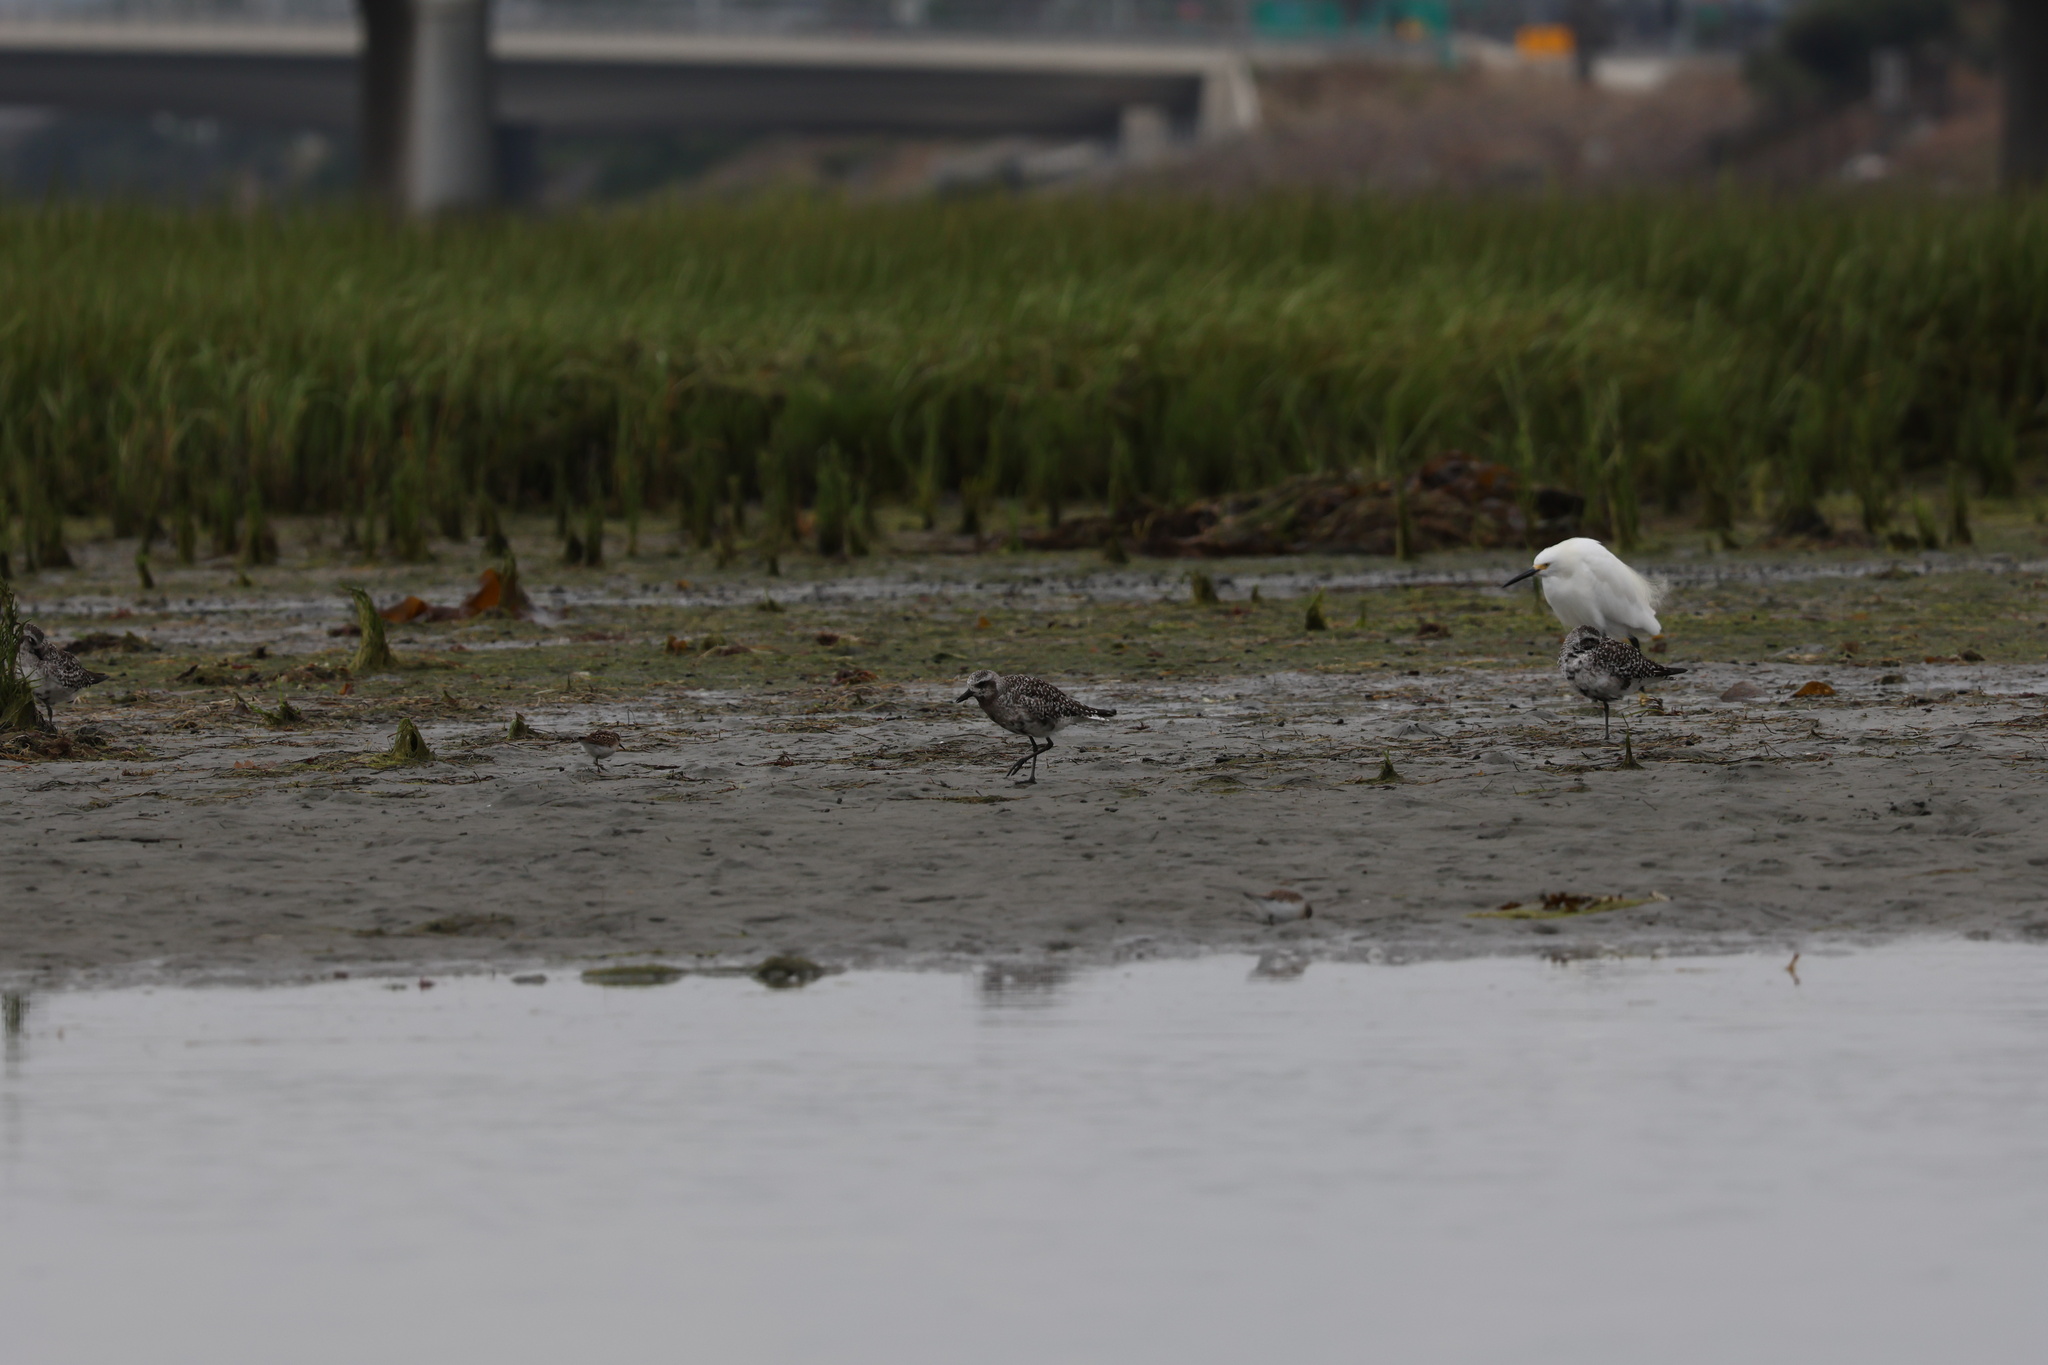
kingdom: Animalia
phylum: Chordata
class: Aves
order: Charadriiformes
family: Charadriidae
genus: Pluvialis
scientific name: Pluvialis squatarola
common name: Grey plover
